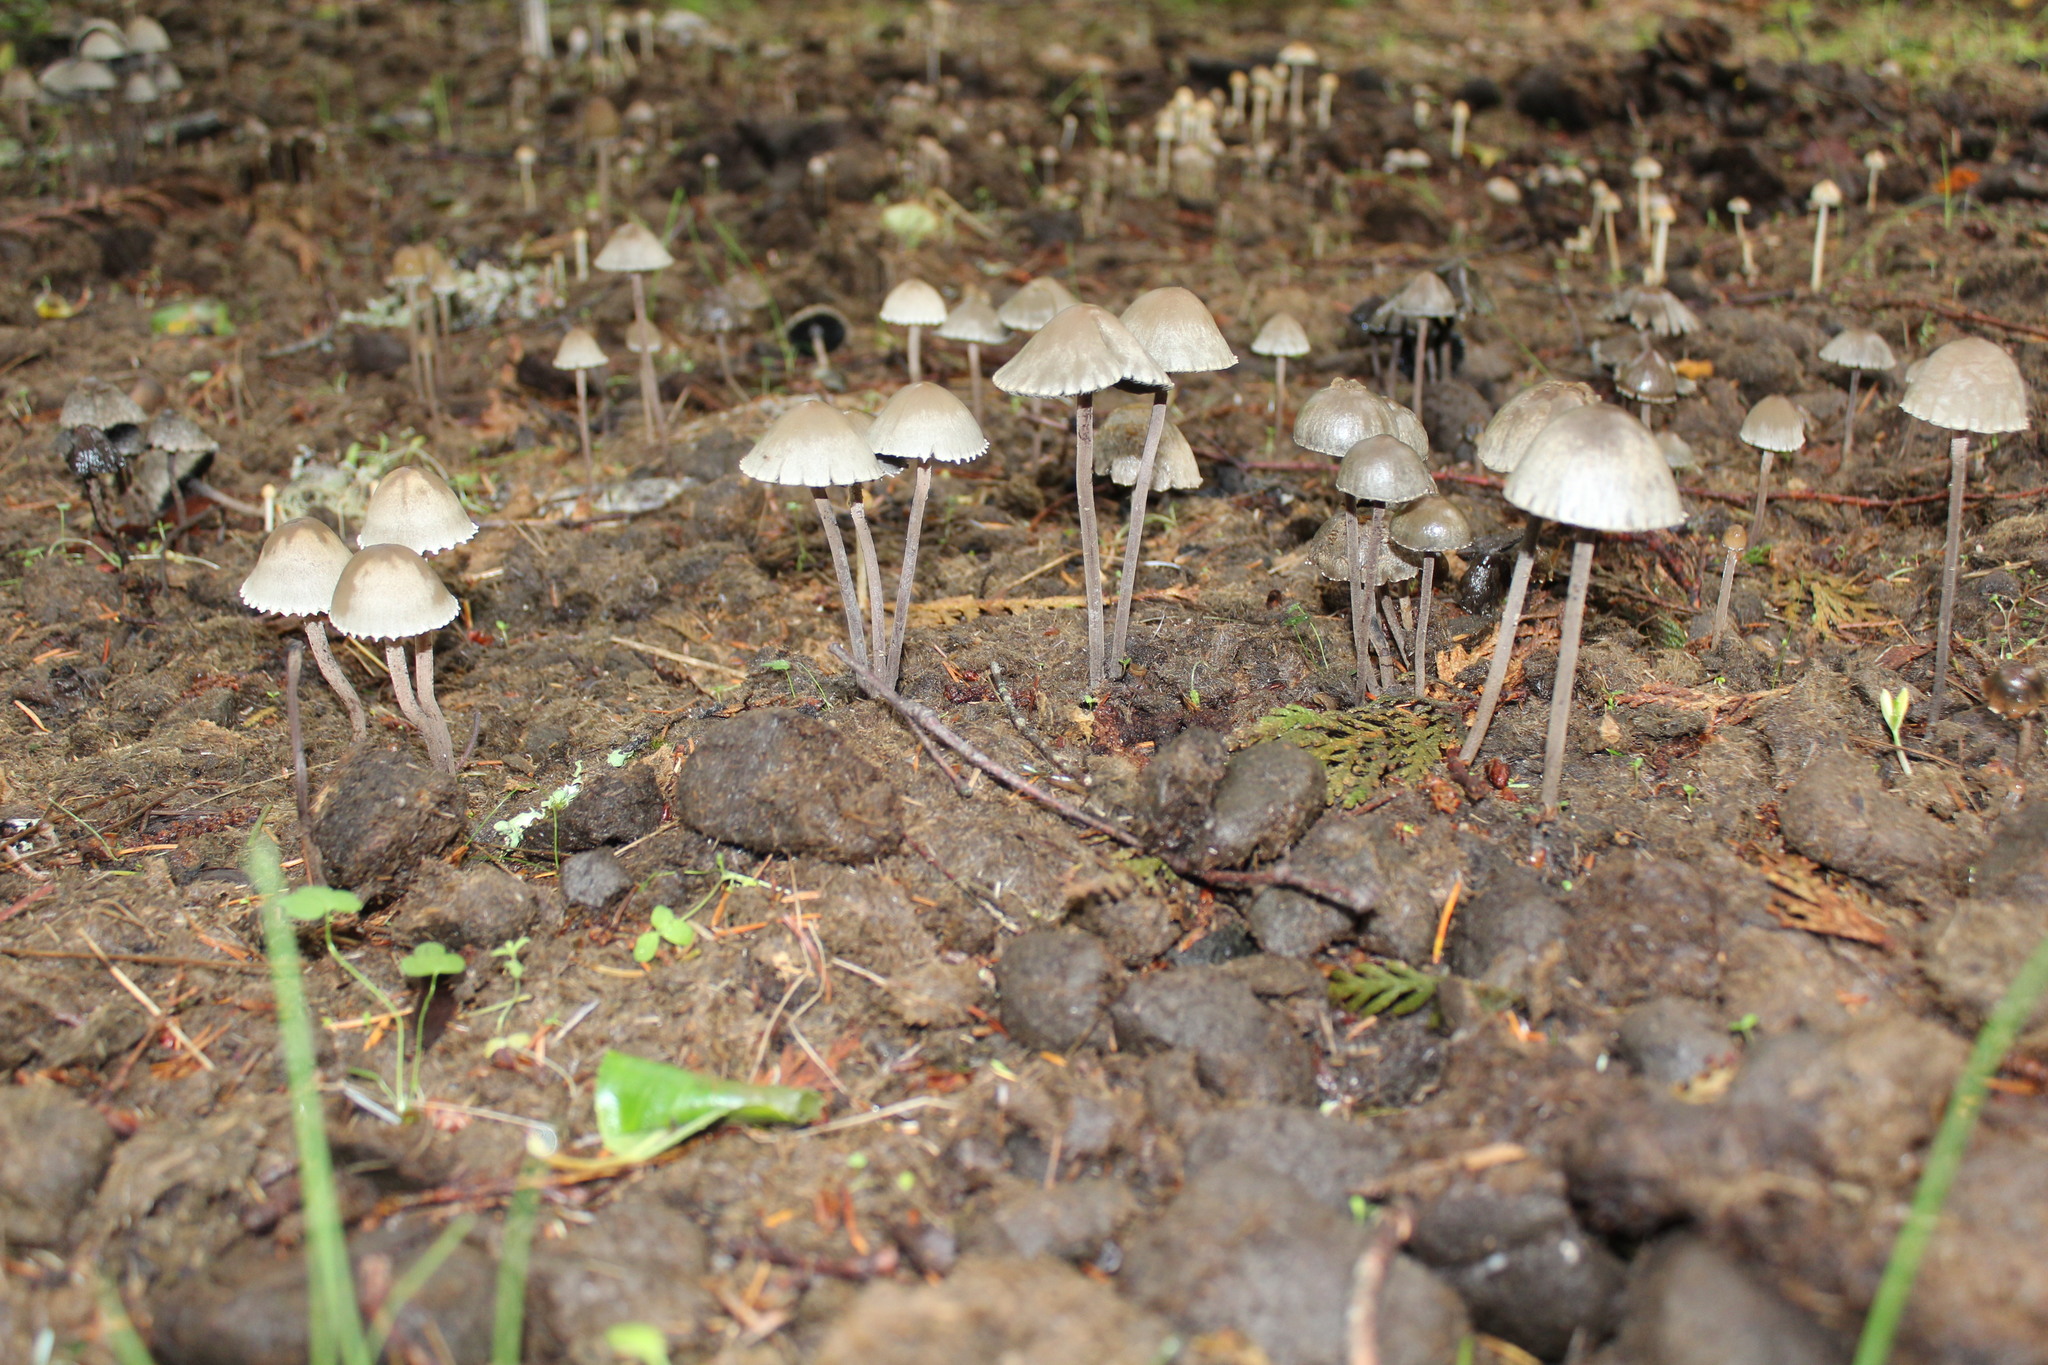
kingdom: Fungi
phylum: Basidiomycota
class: Agaricomycetes
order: Agaricales
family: Bolbitiaceae
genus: Panaeolus
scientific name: Panaeolus papilionaceus
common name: Petticoat mottlegill
